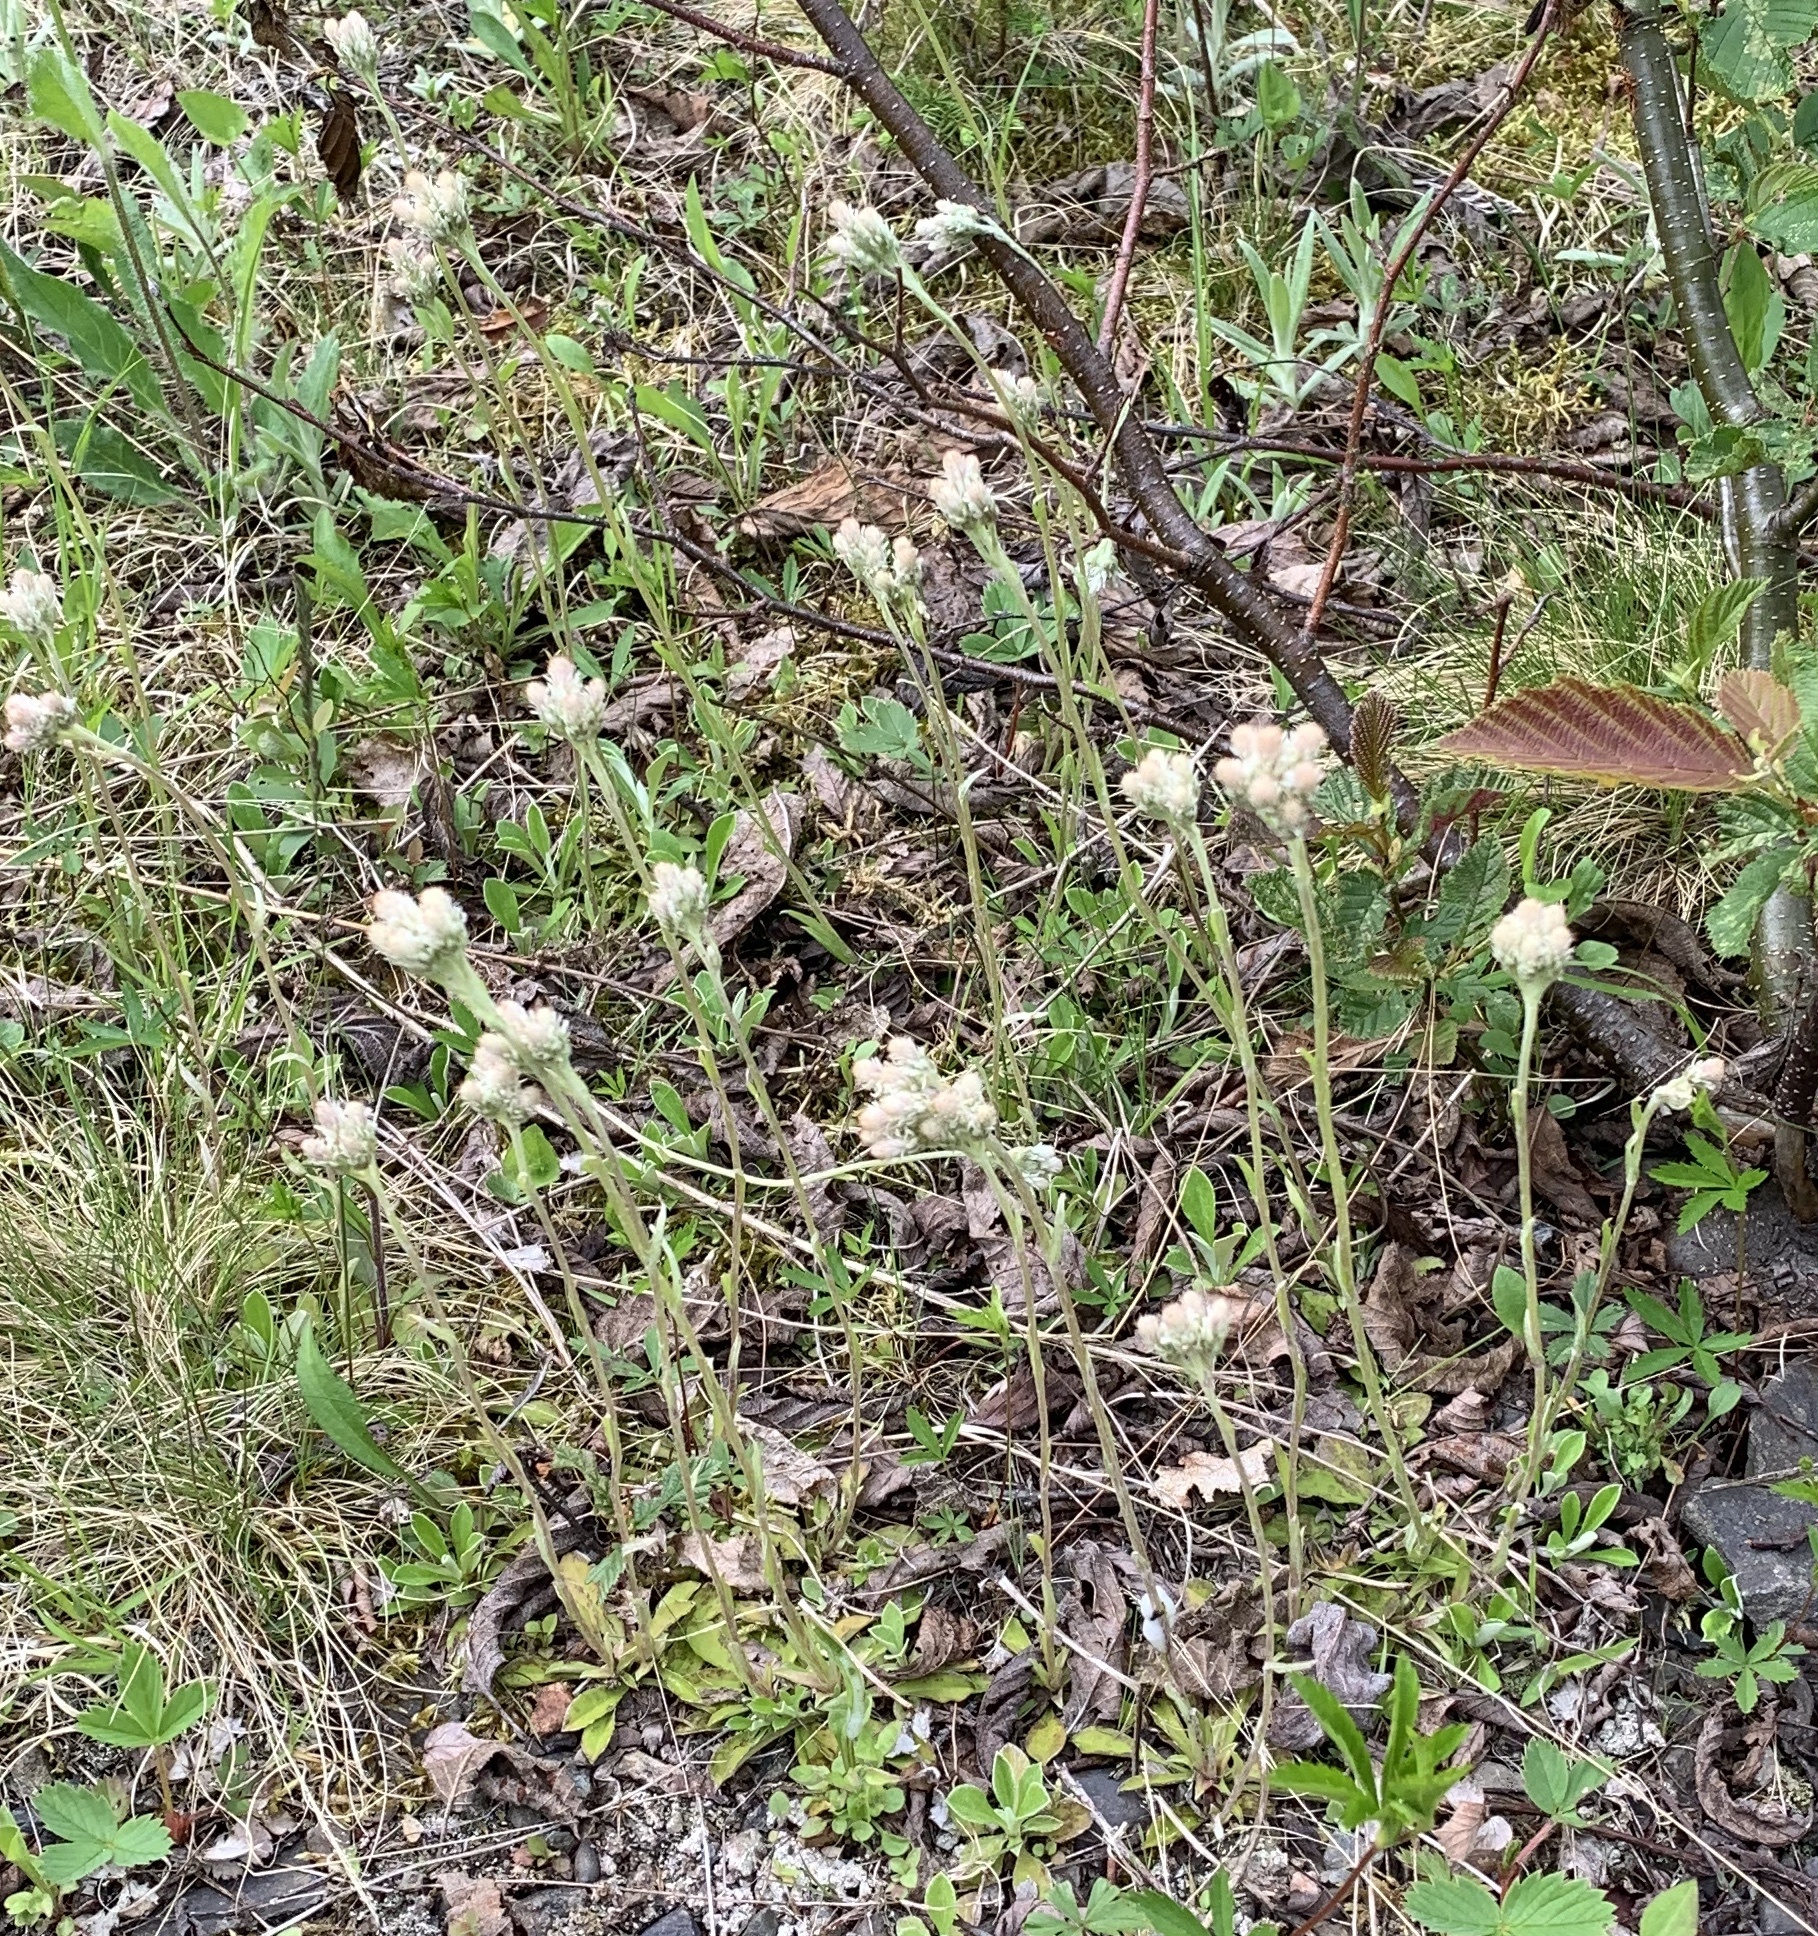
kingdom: Plantae
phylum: Tracheophyta
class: Magnoliopsida
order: Asterales
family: Asteraceae
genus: Antennaria
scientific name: Antennaria howellii
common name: Howell's pussytoes
